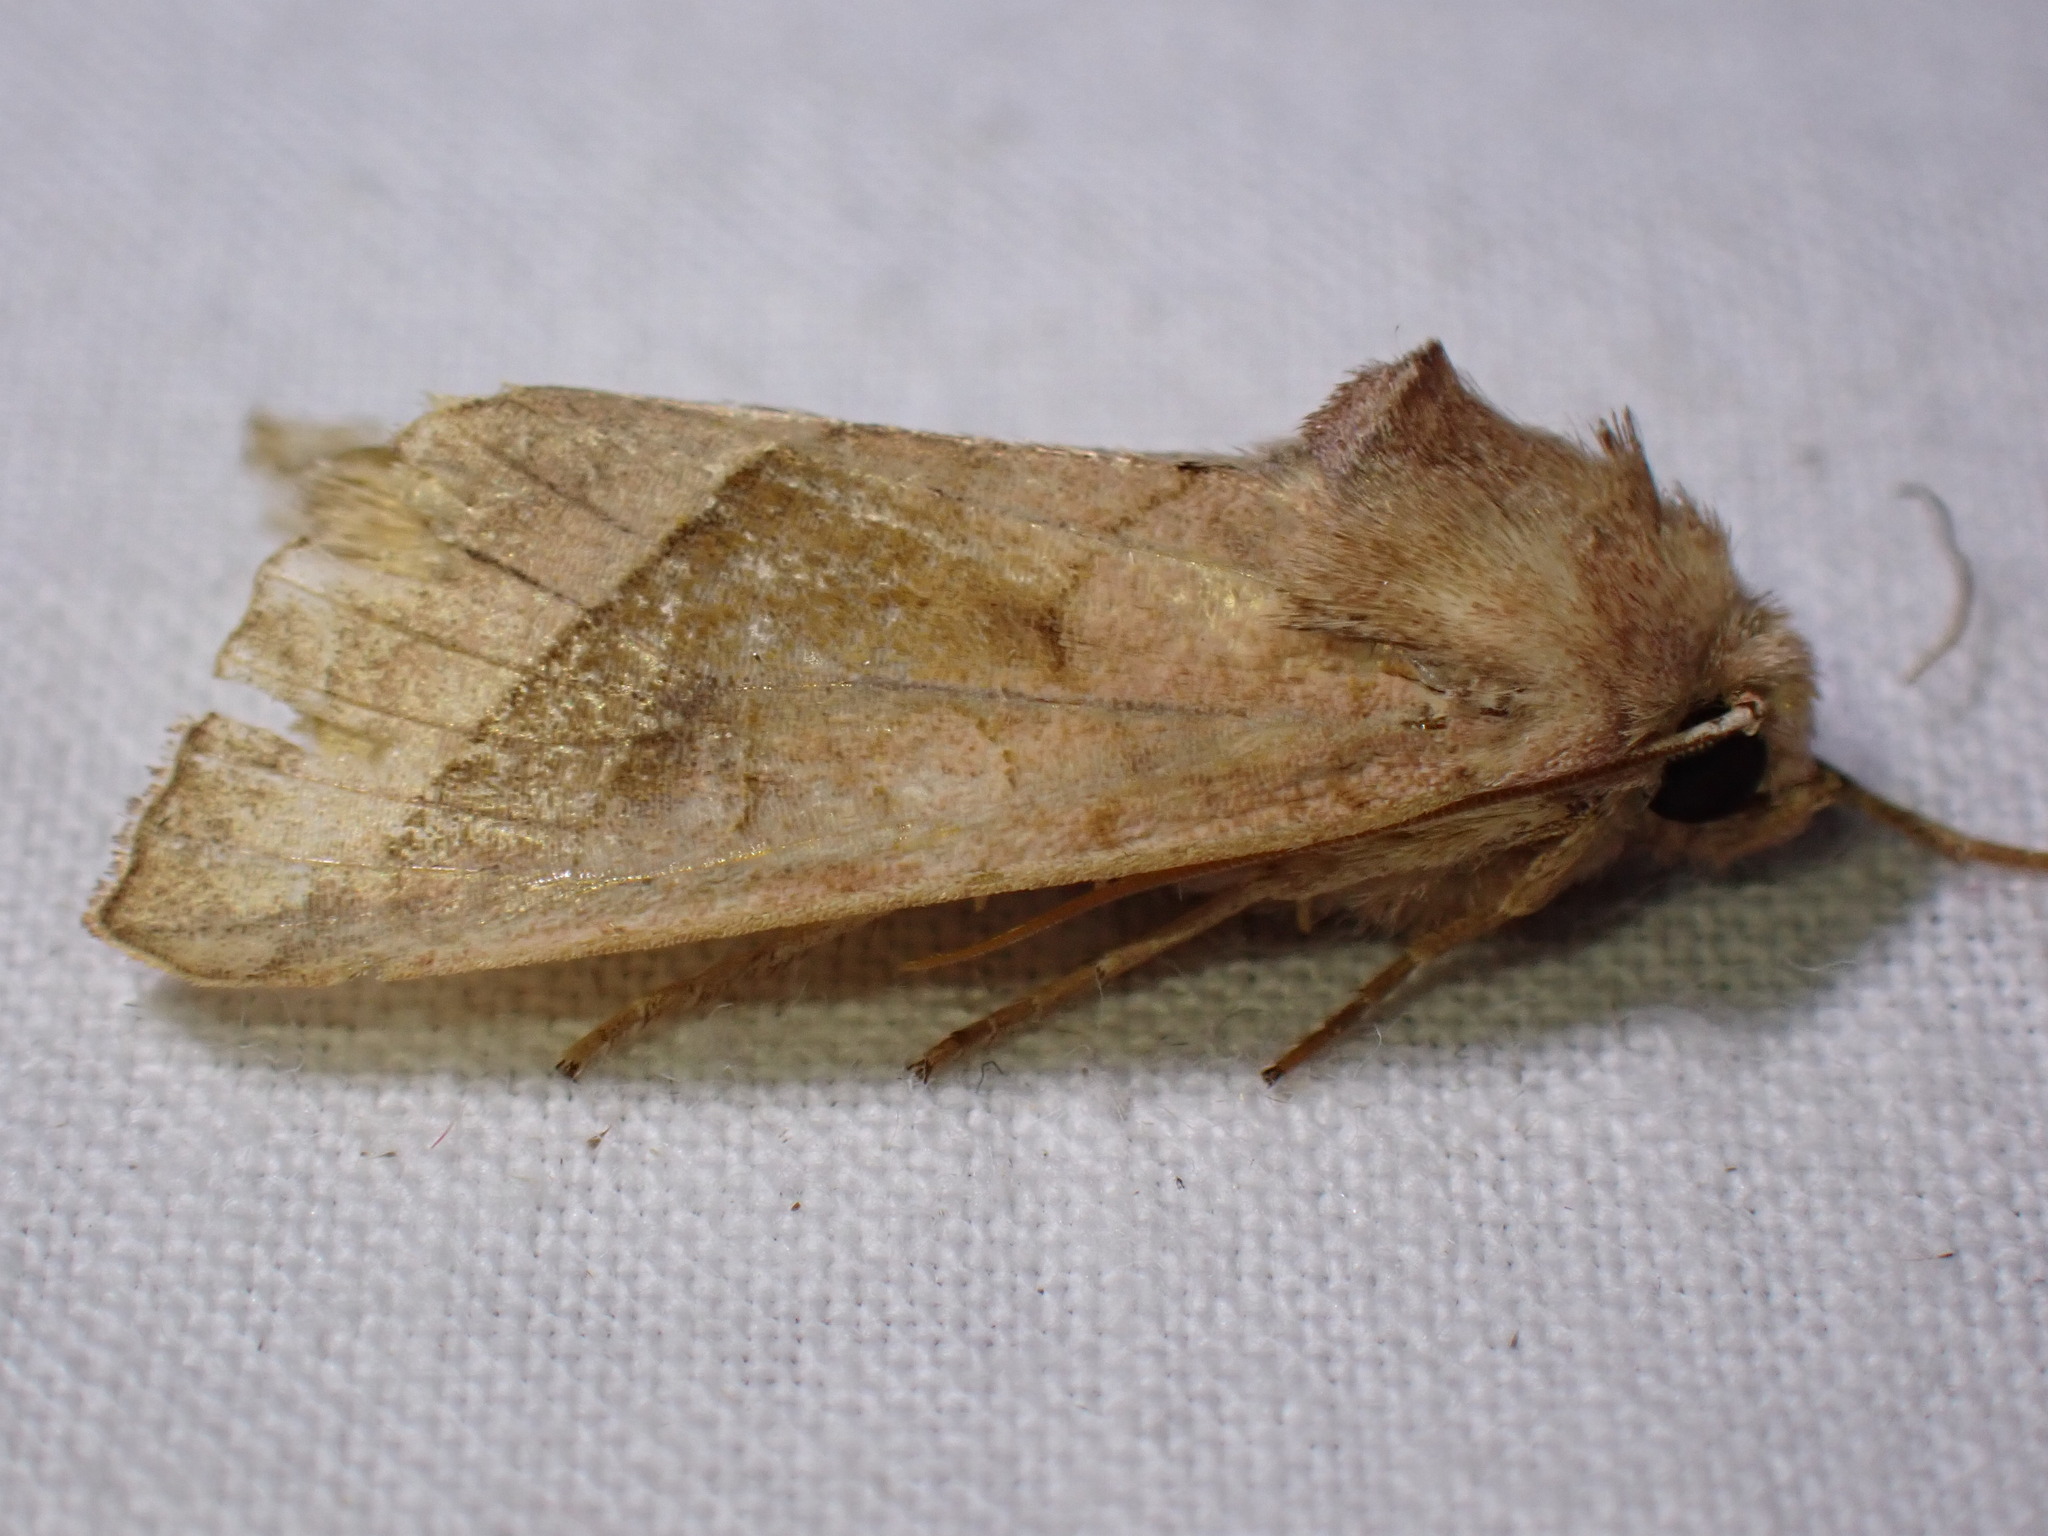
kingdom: Animalia
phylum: Arthropoda
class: Insecta
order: Lepidoptera
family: Noctuidae
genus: Hydraecia
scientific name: Hydraecia micacea
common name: Rosy rustic
